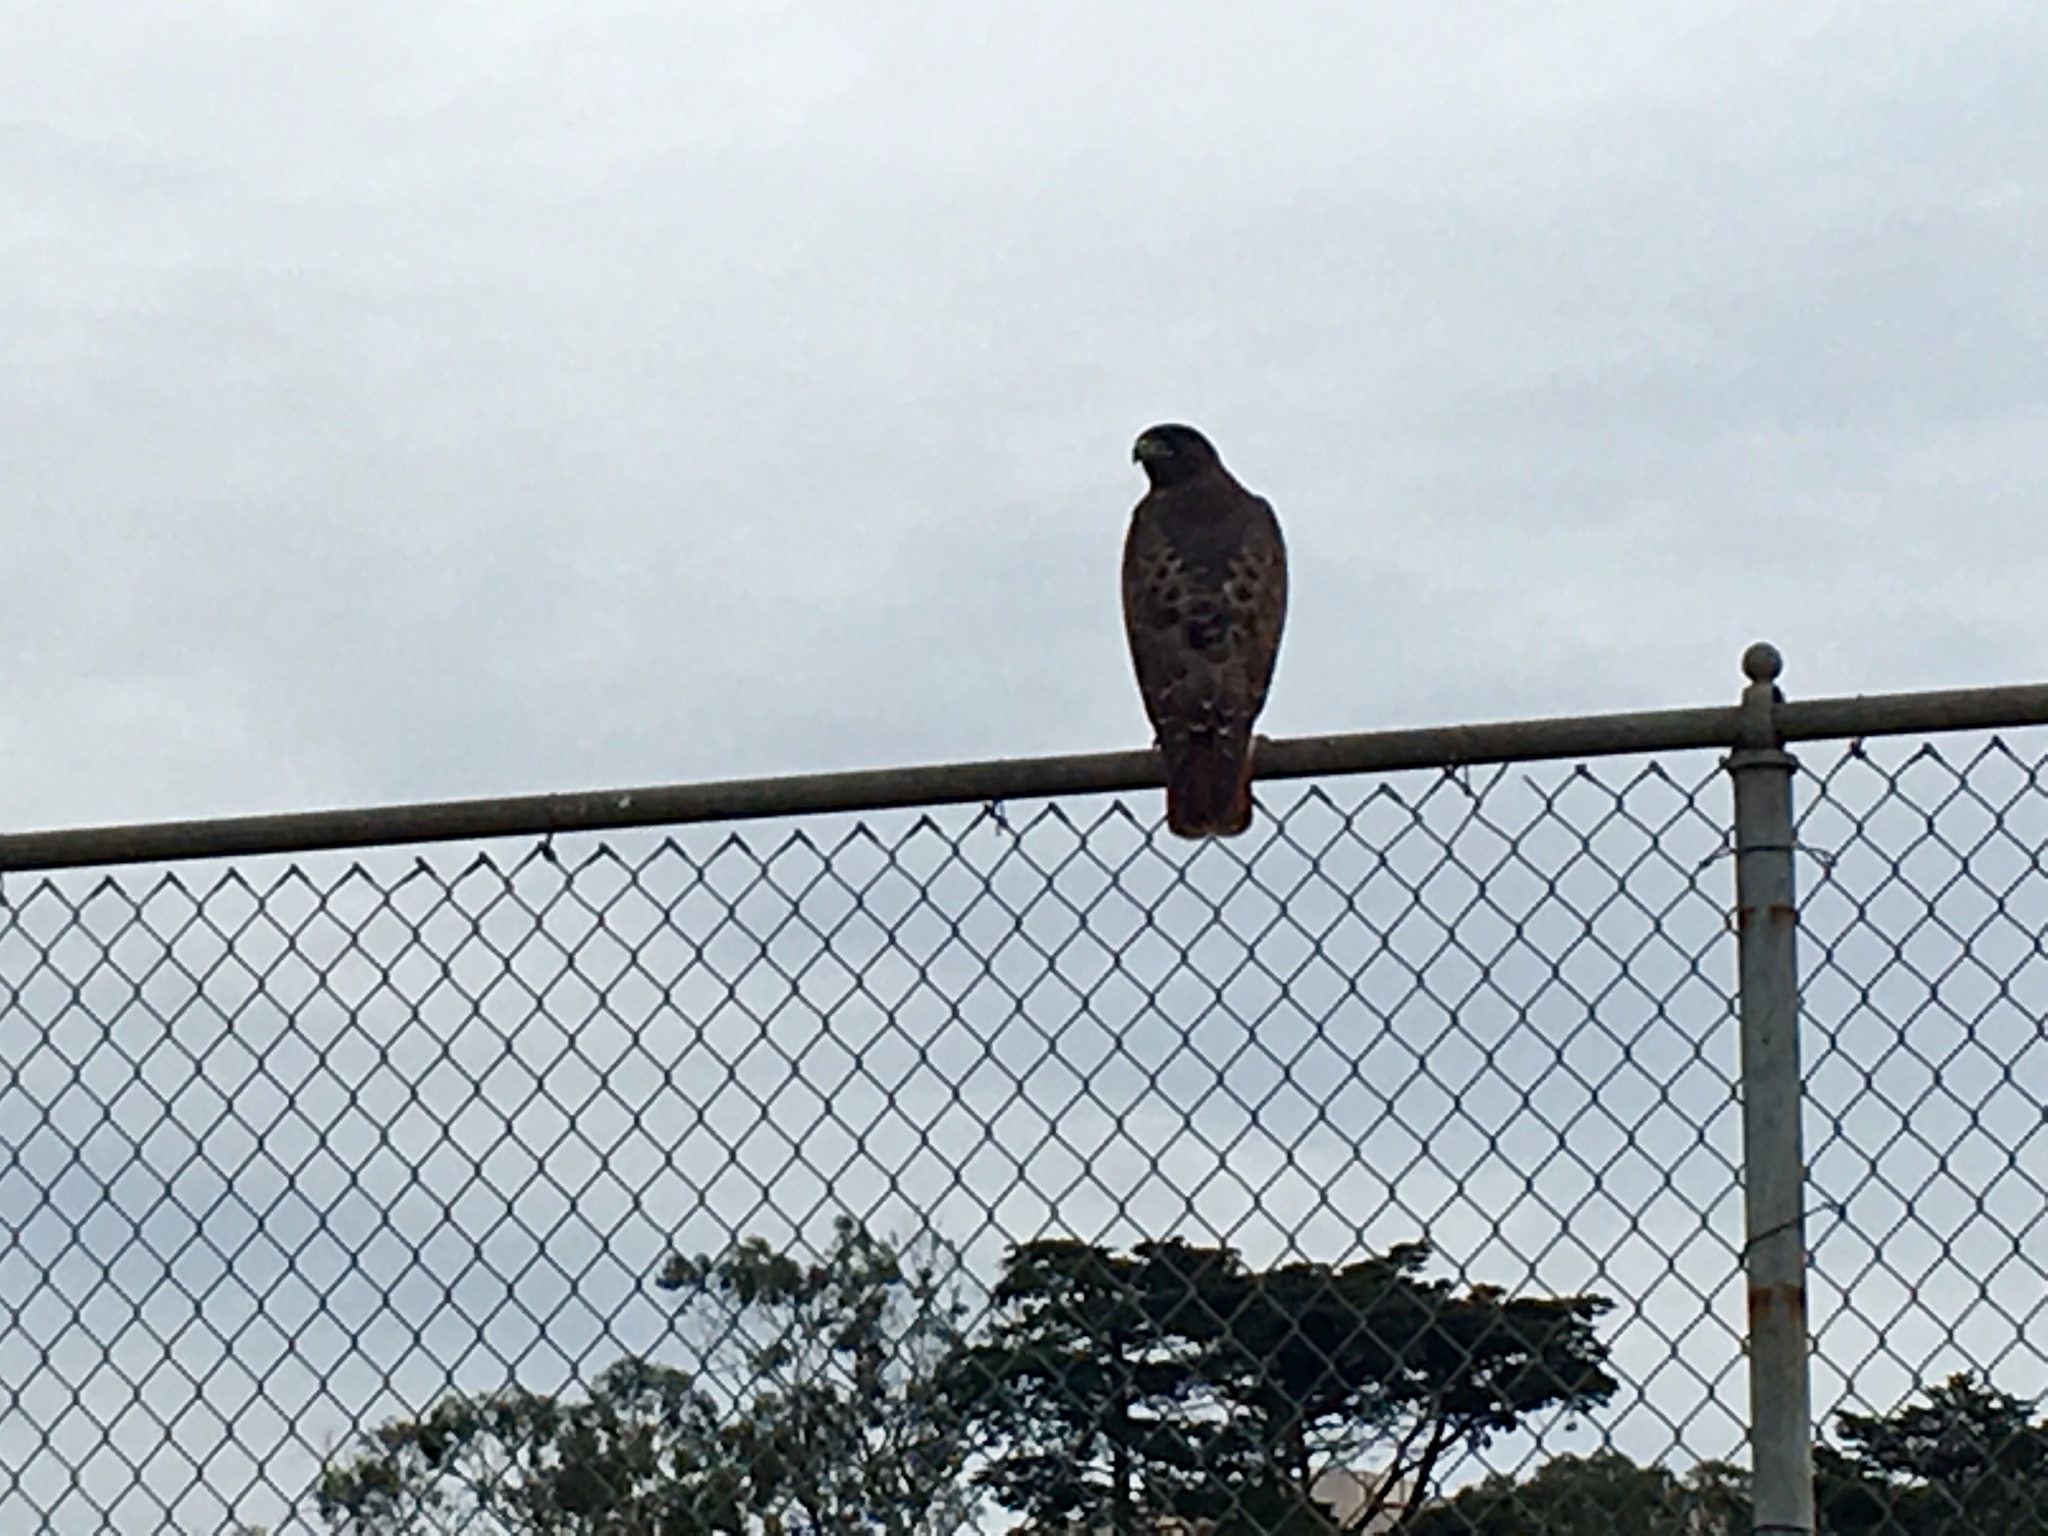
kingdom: Animalia
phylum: Chordata
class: Aves
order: Accipitriformes
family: Accipitridae
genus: Buteo
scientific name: Buteo jamaicensis
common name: Red-tailed hawk
